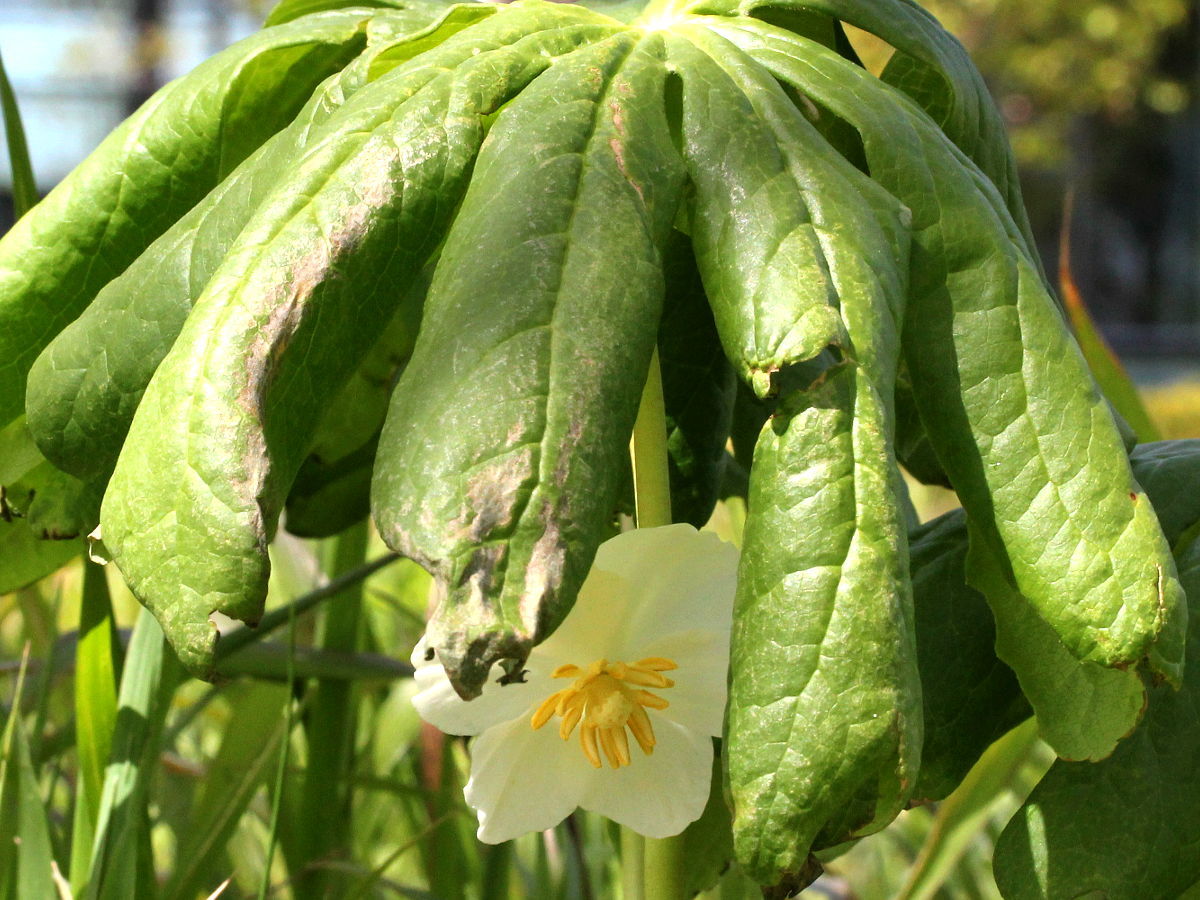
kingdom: Plantae
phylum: Tracheophyta
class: Magnoliopsida
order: Ranunculales
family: Berberidaceae
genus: Podophyllum
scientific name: Podophyllum peltatum
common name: Wild mandrake
